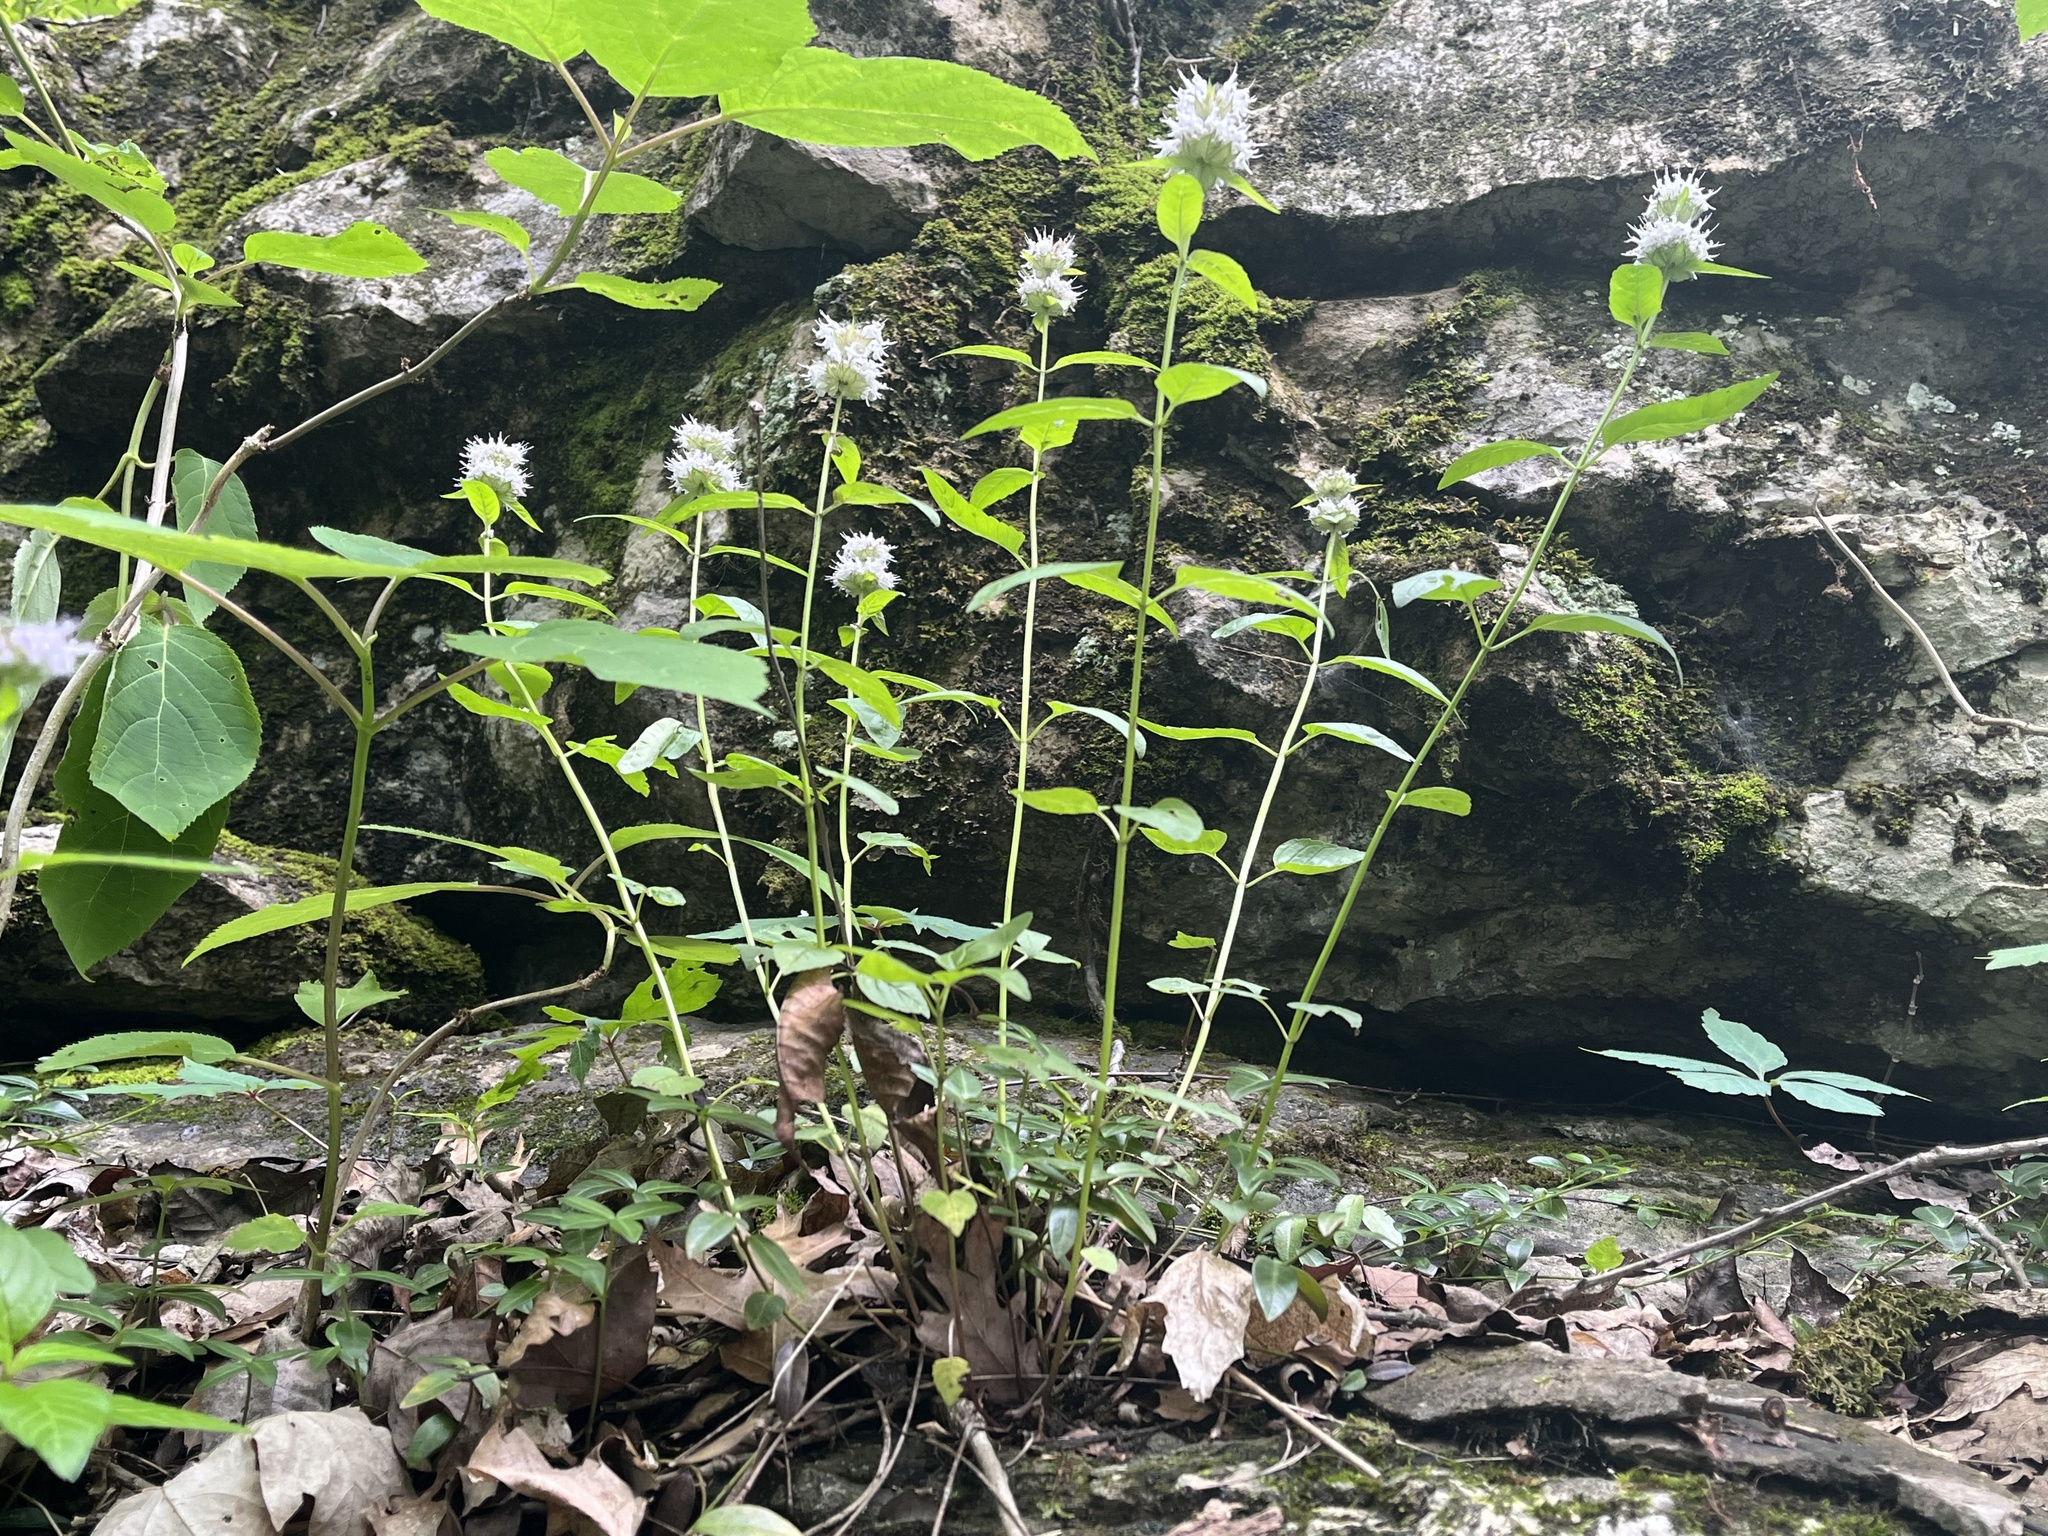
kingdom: Plantae
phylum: Tracheophyta
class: Magnoliopsida
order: Lamiales
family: Lamiaceae
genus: Blephilia
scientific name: Blephilia subnuda
